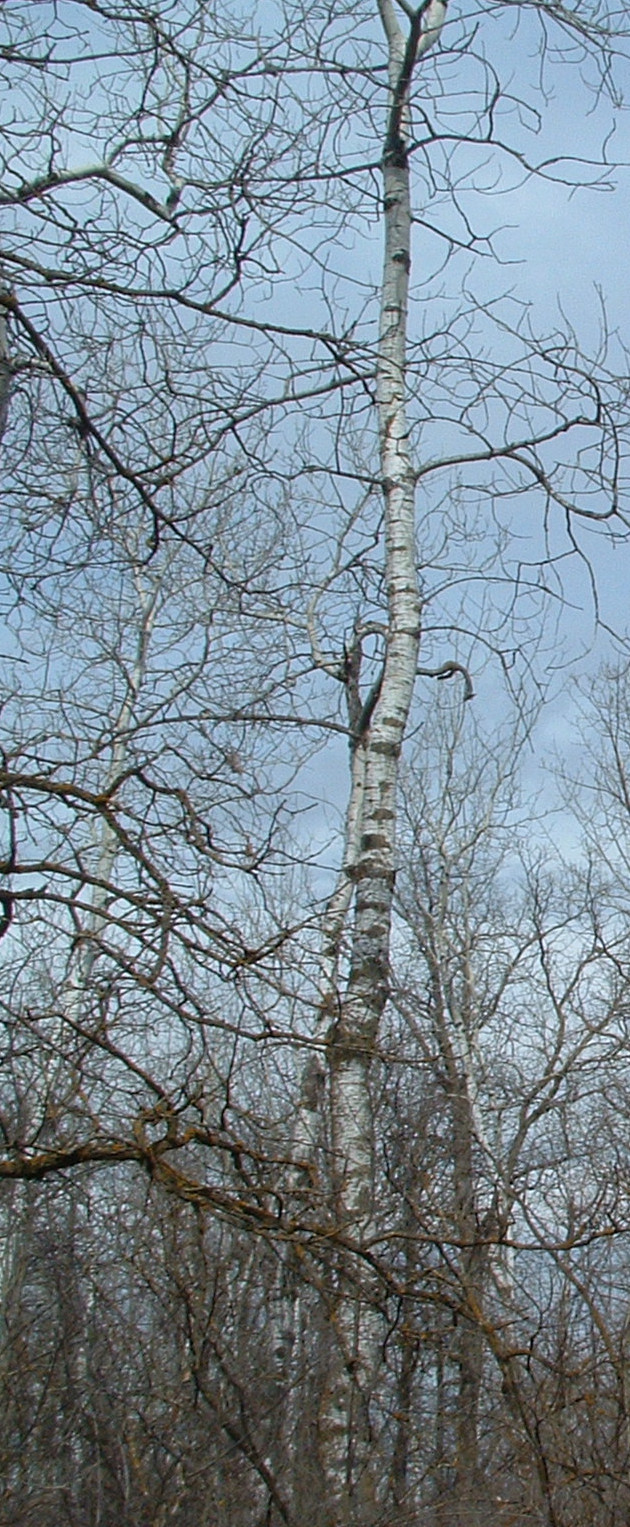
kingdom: Plantae
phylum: Tracheophyta
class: Magnoliopsida
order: Malpighiales
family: Salicaceae
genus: Populus
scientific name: Populus tremuloides
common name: Quaking aspen
